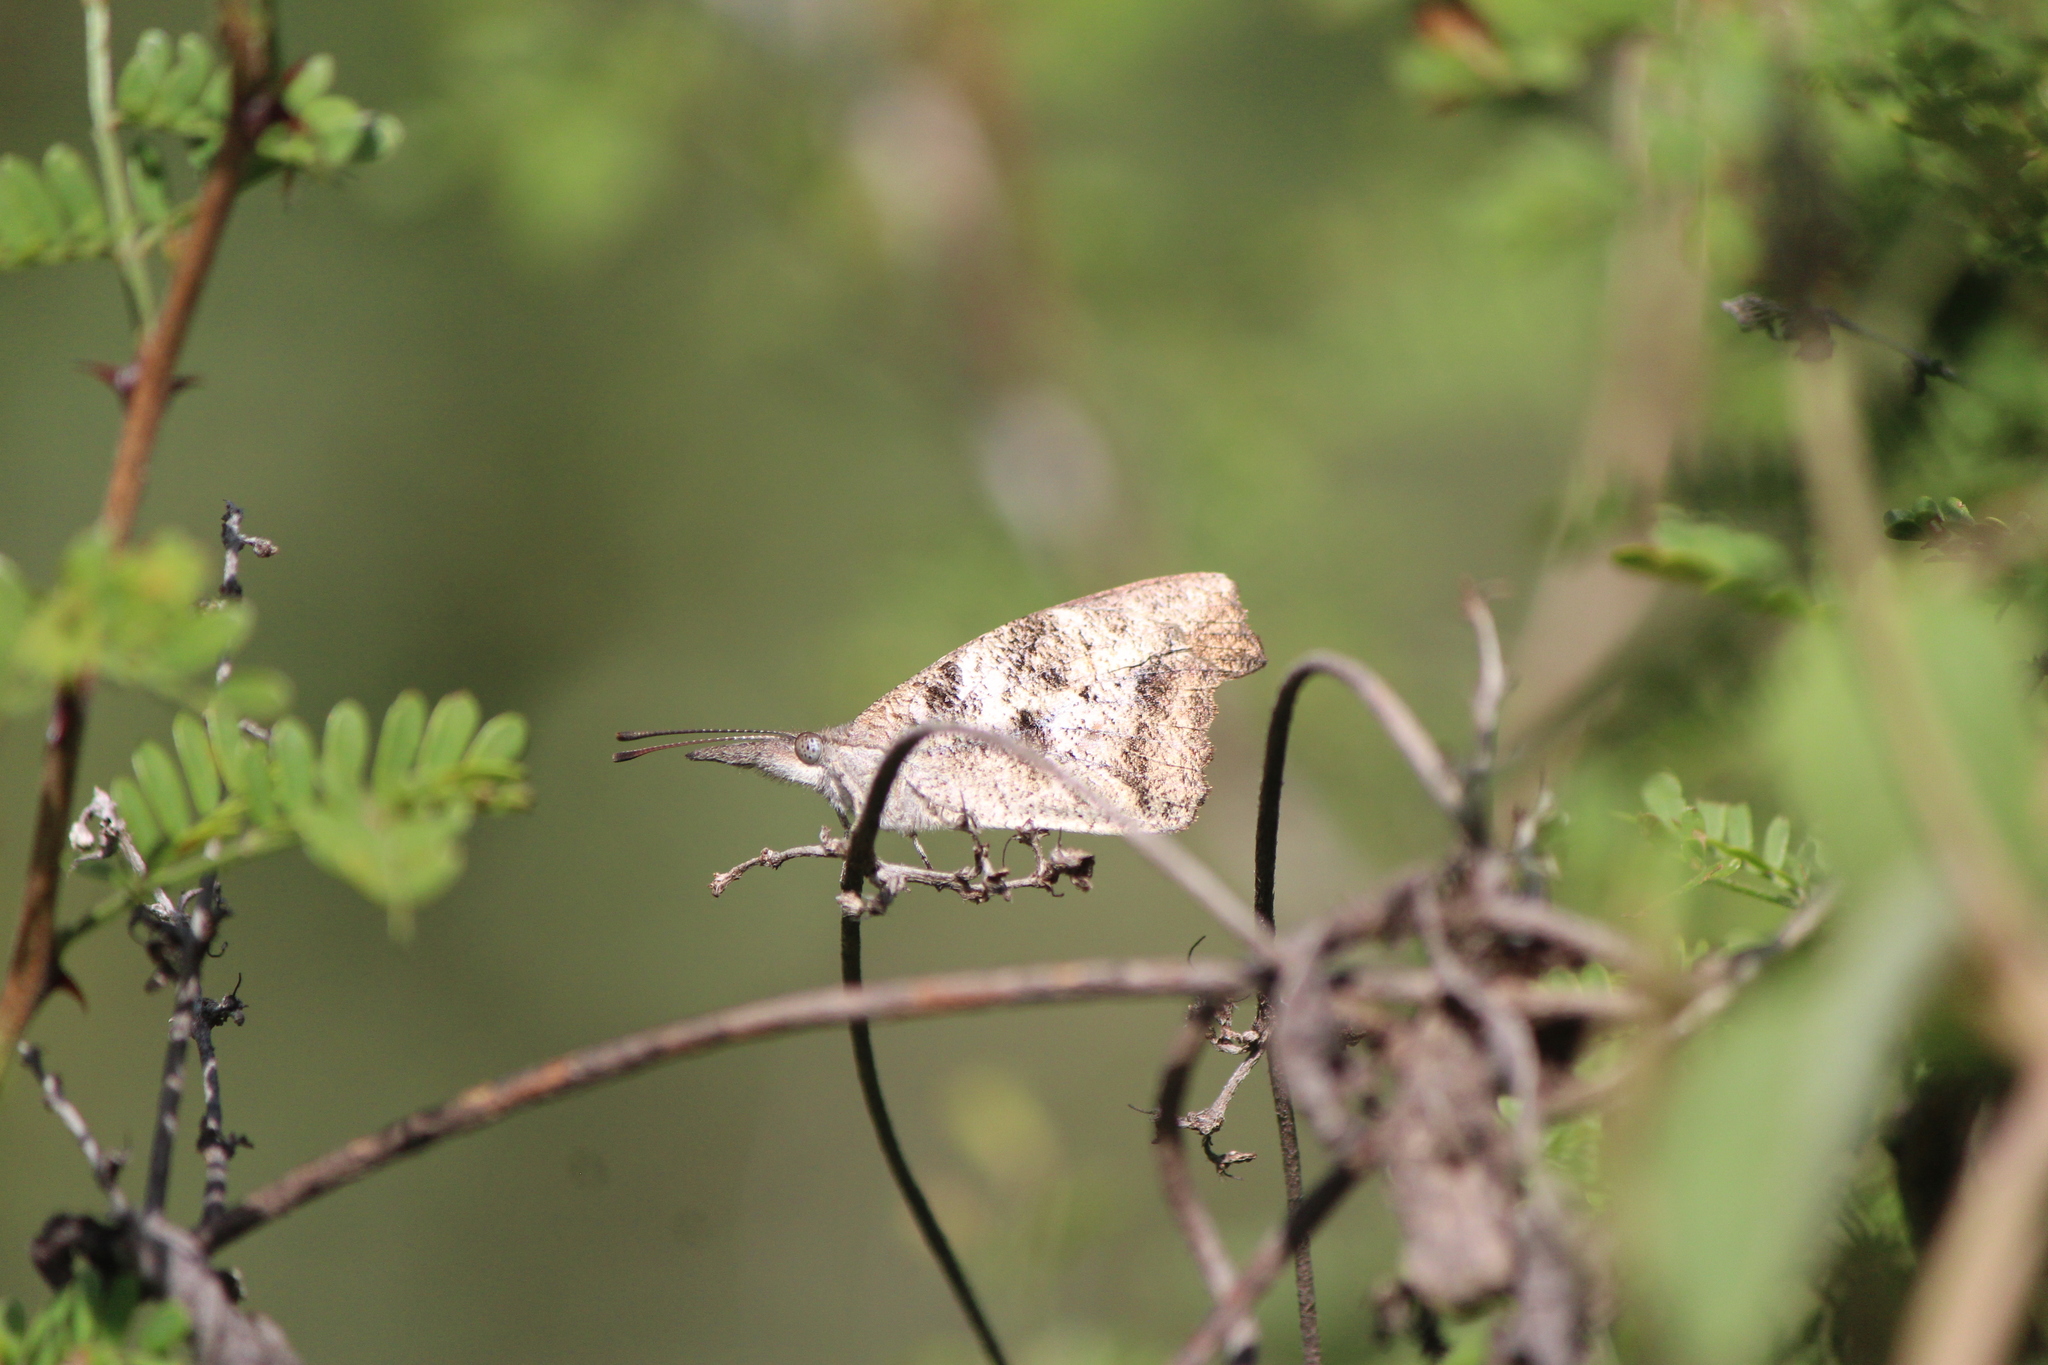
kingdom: Animalia
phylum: Arthropoda
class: Insecta
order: Lepidoptera
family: Nymphalidae
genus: Libytheana
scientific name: Libytheana carinenta
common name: American snout
